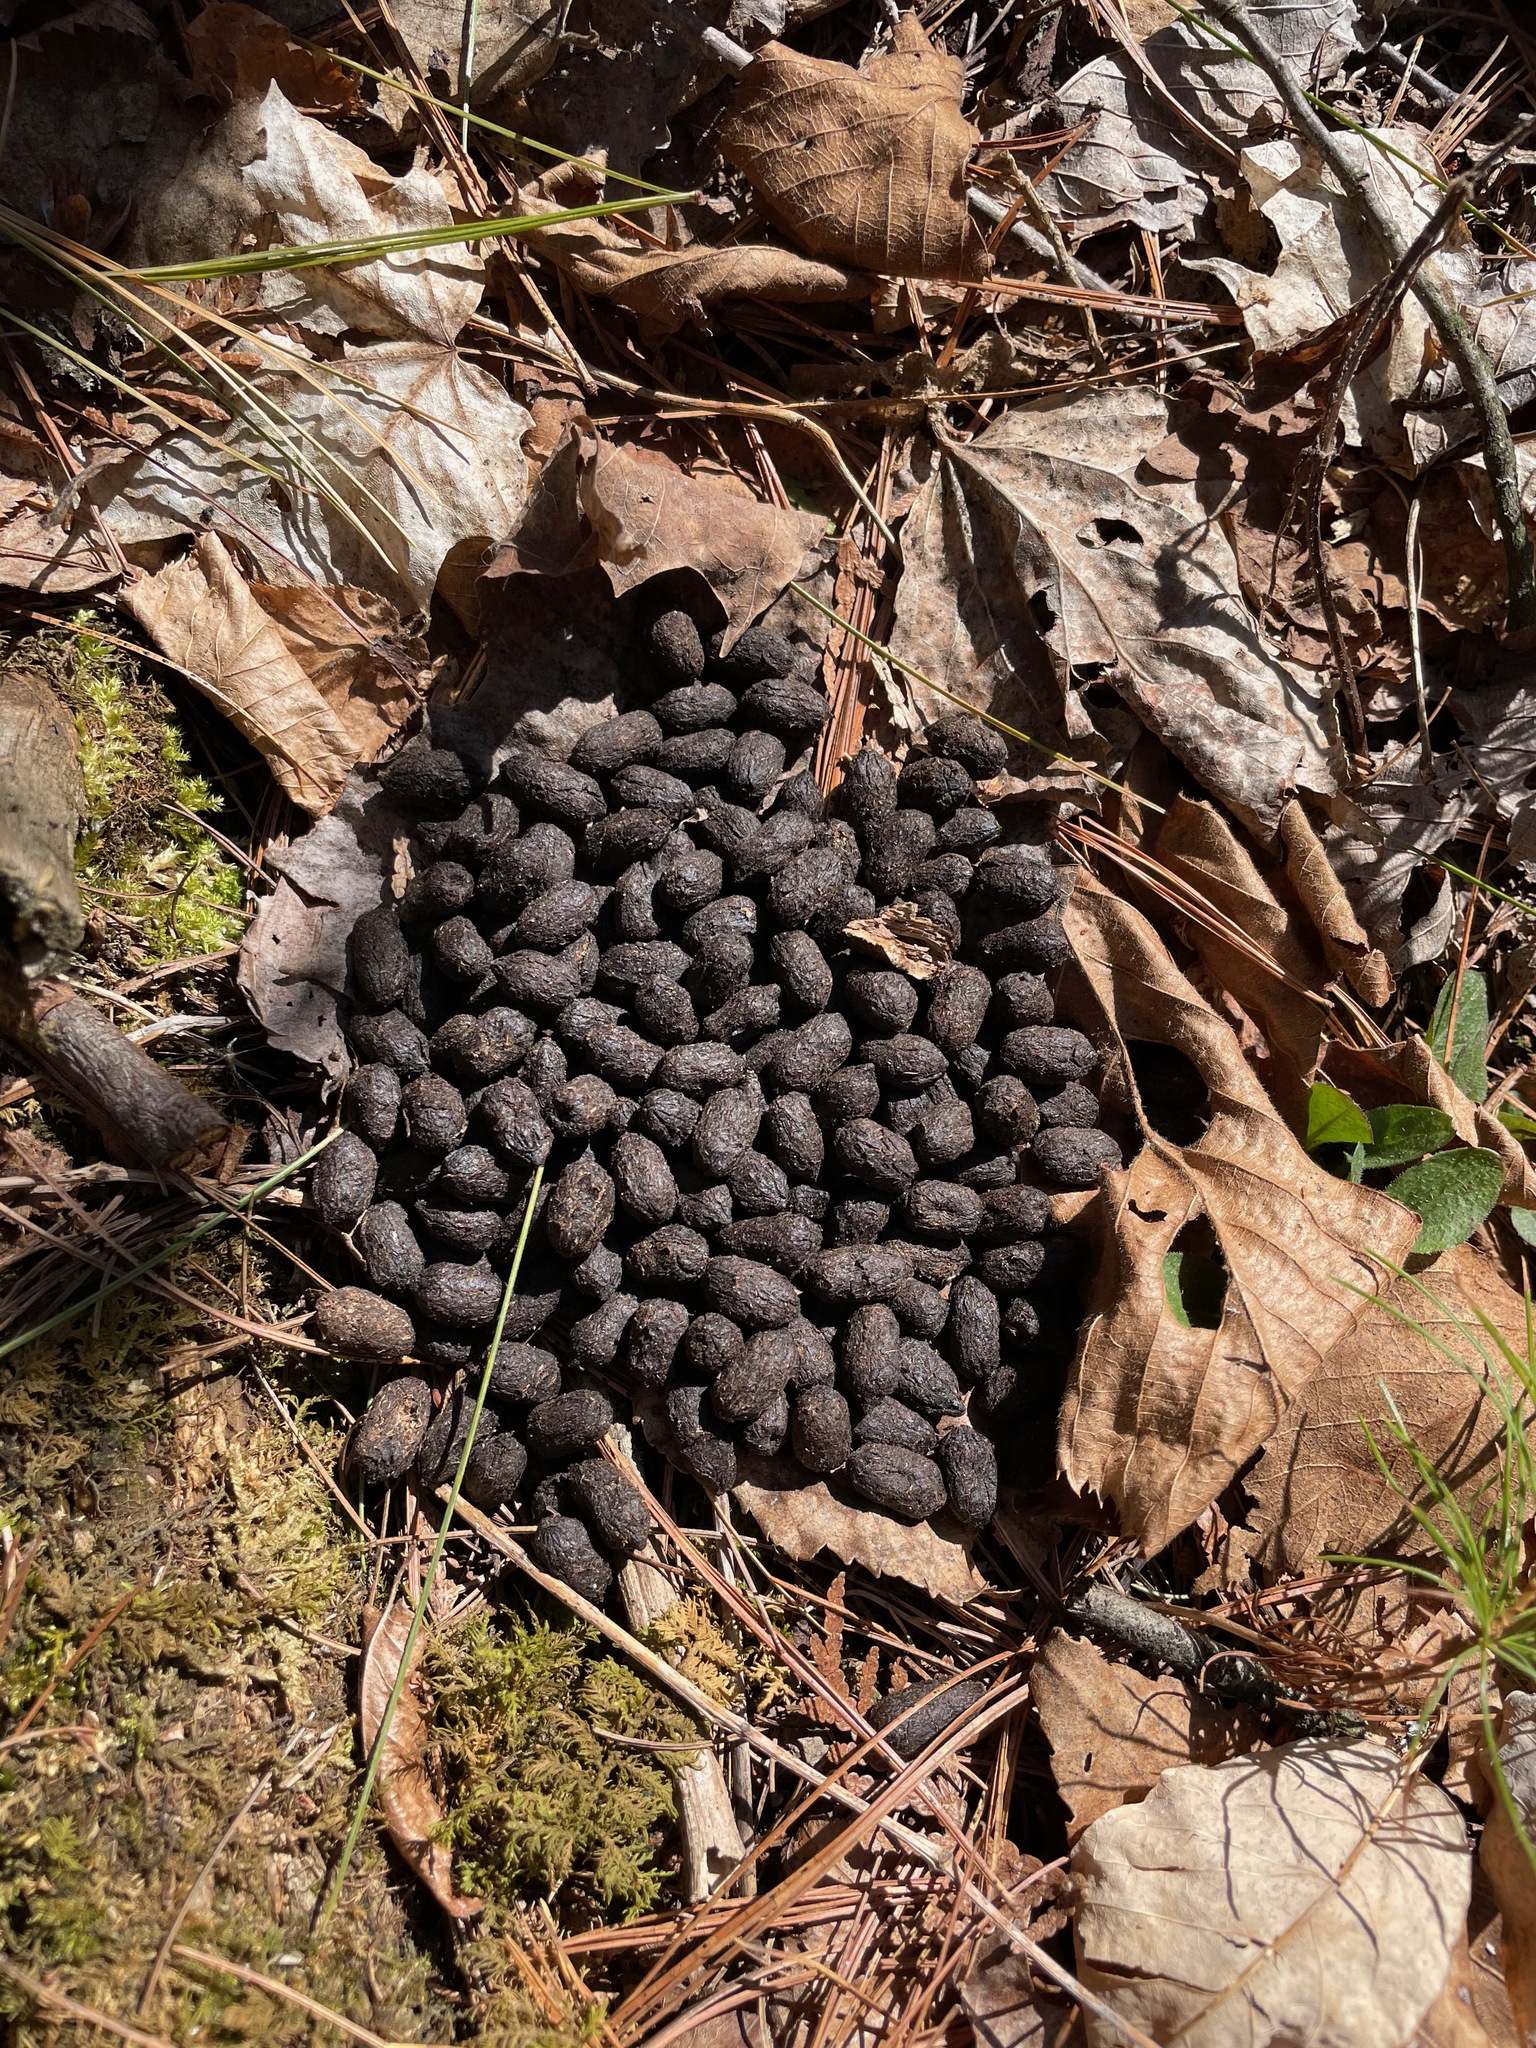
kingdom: Animalia
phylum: Chordata
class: Mammalia
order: Artiodactyla
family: Cervidae
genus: Odocoileus
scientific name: Odocoileus virginianus
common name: White-tailed deer
